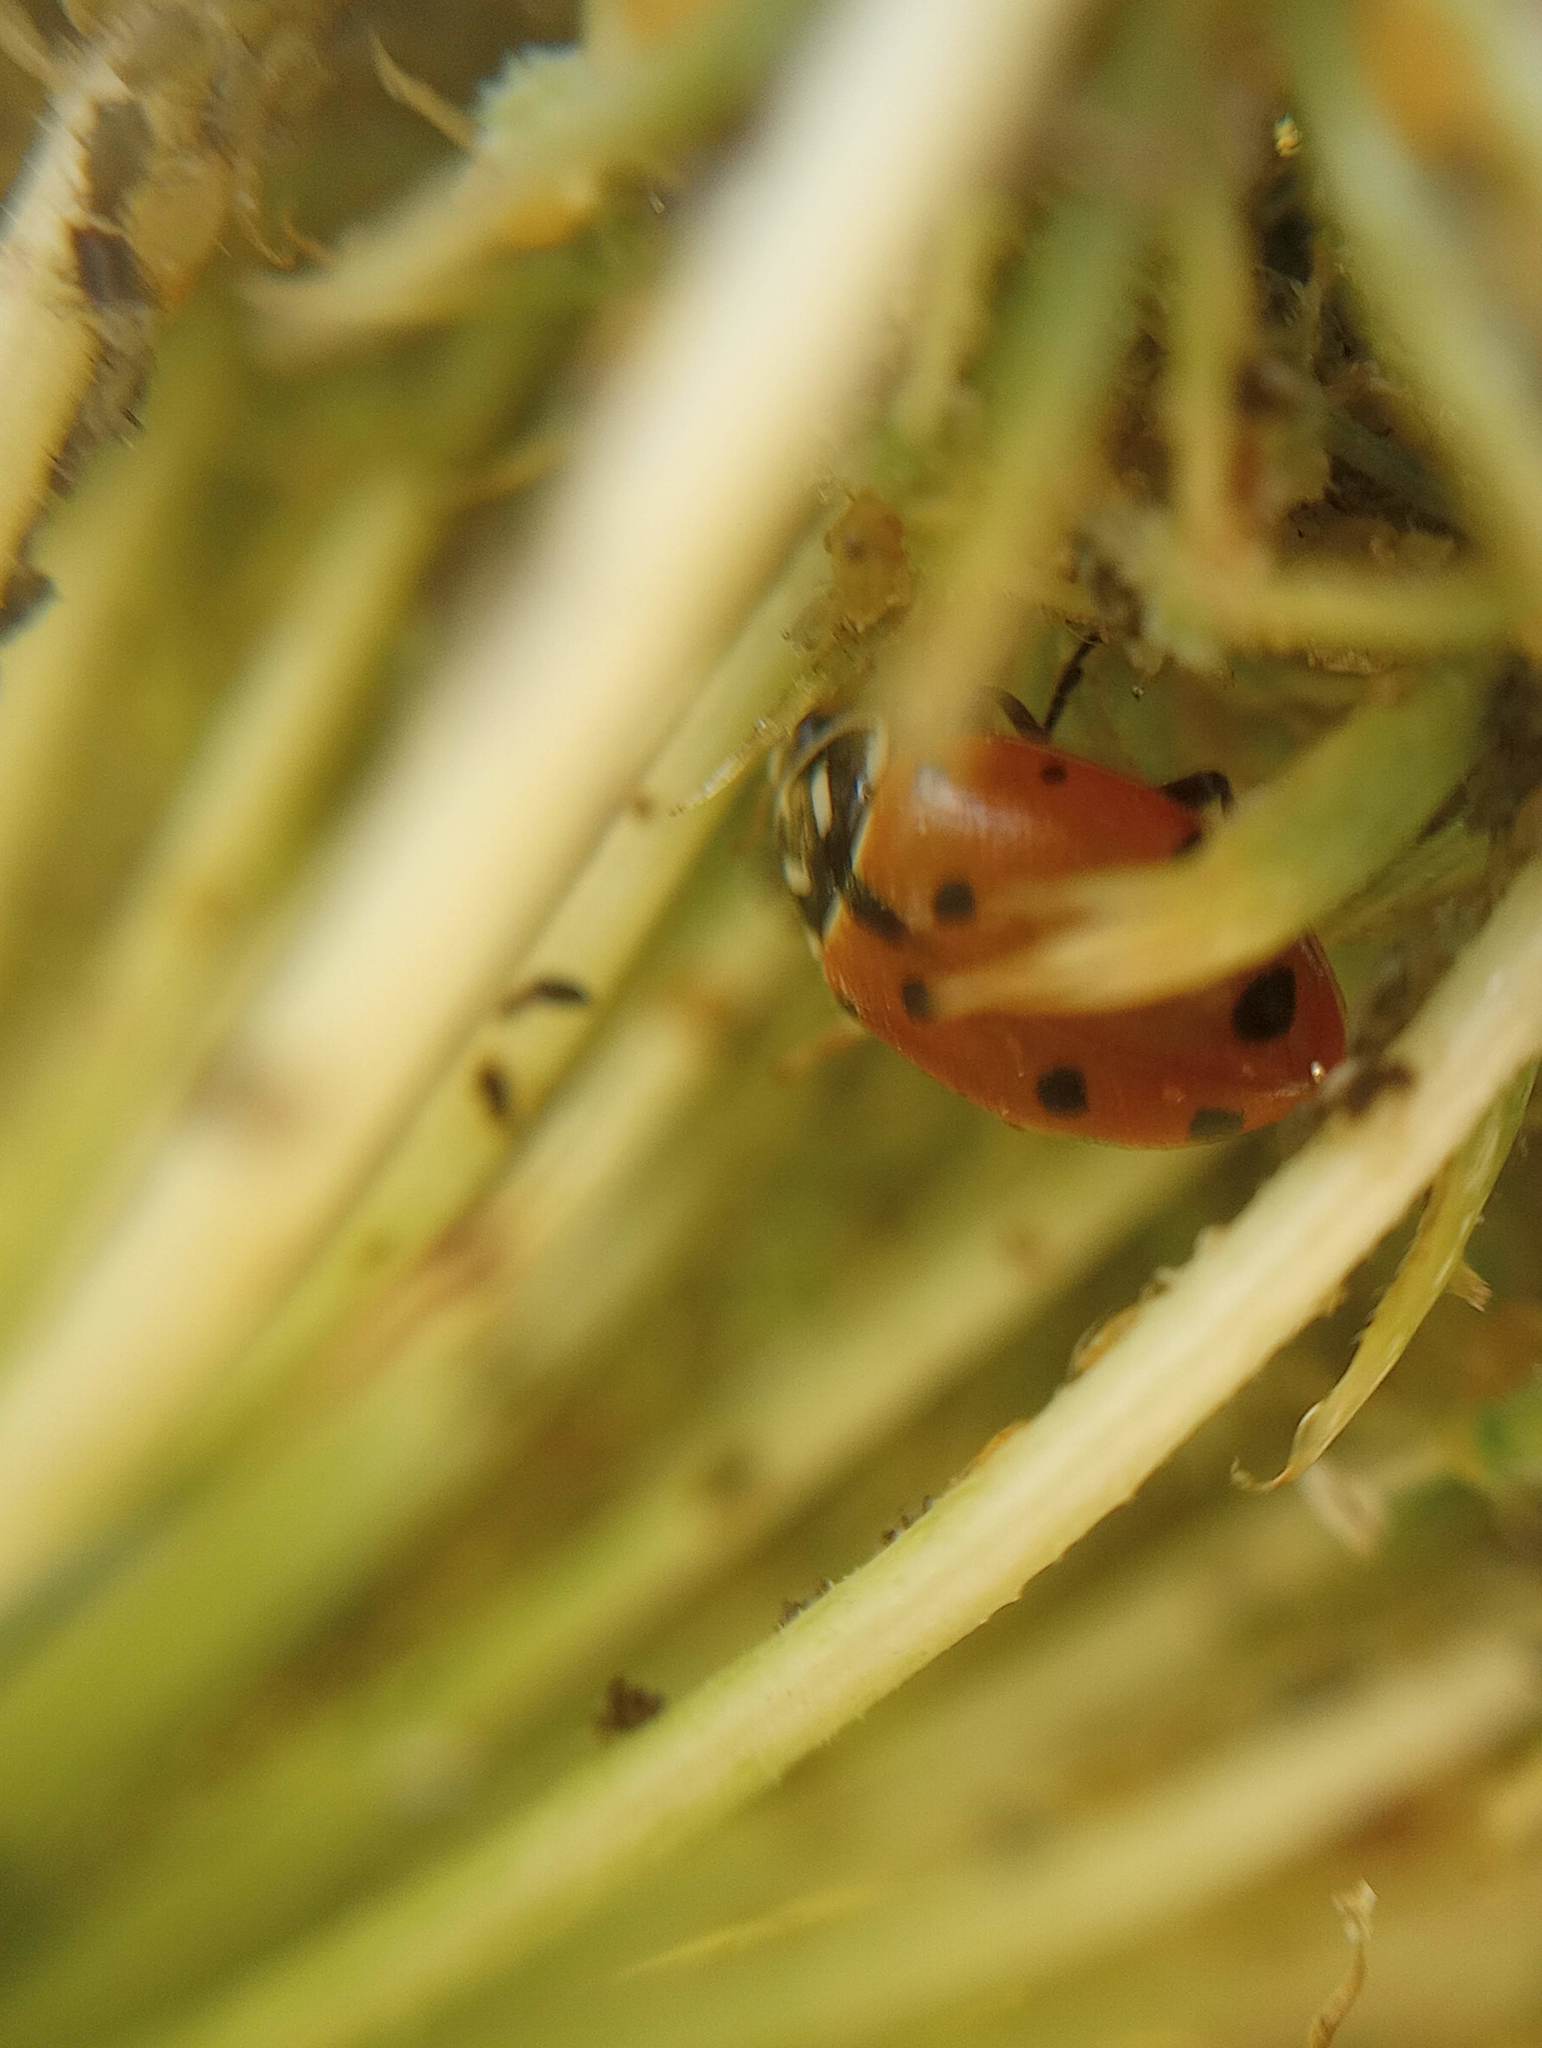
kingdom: Animalia
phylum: Arthropoda
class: Insecta
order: Coleoptera
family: Coccinellidae
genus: Hippodamia
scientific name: Hippodamia convergens
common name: Convergent lady beetle
